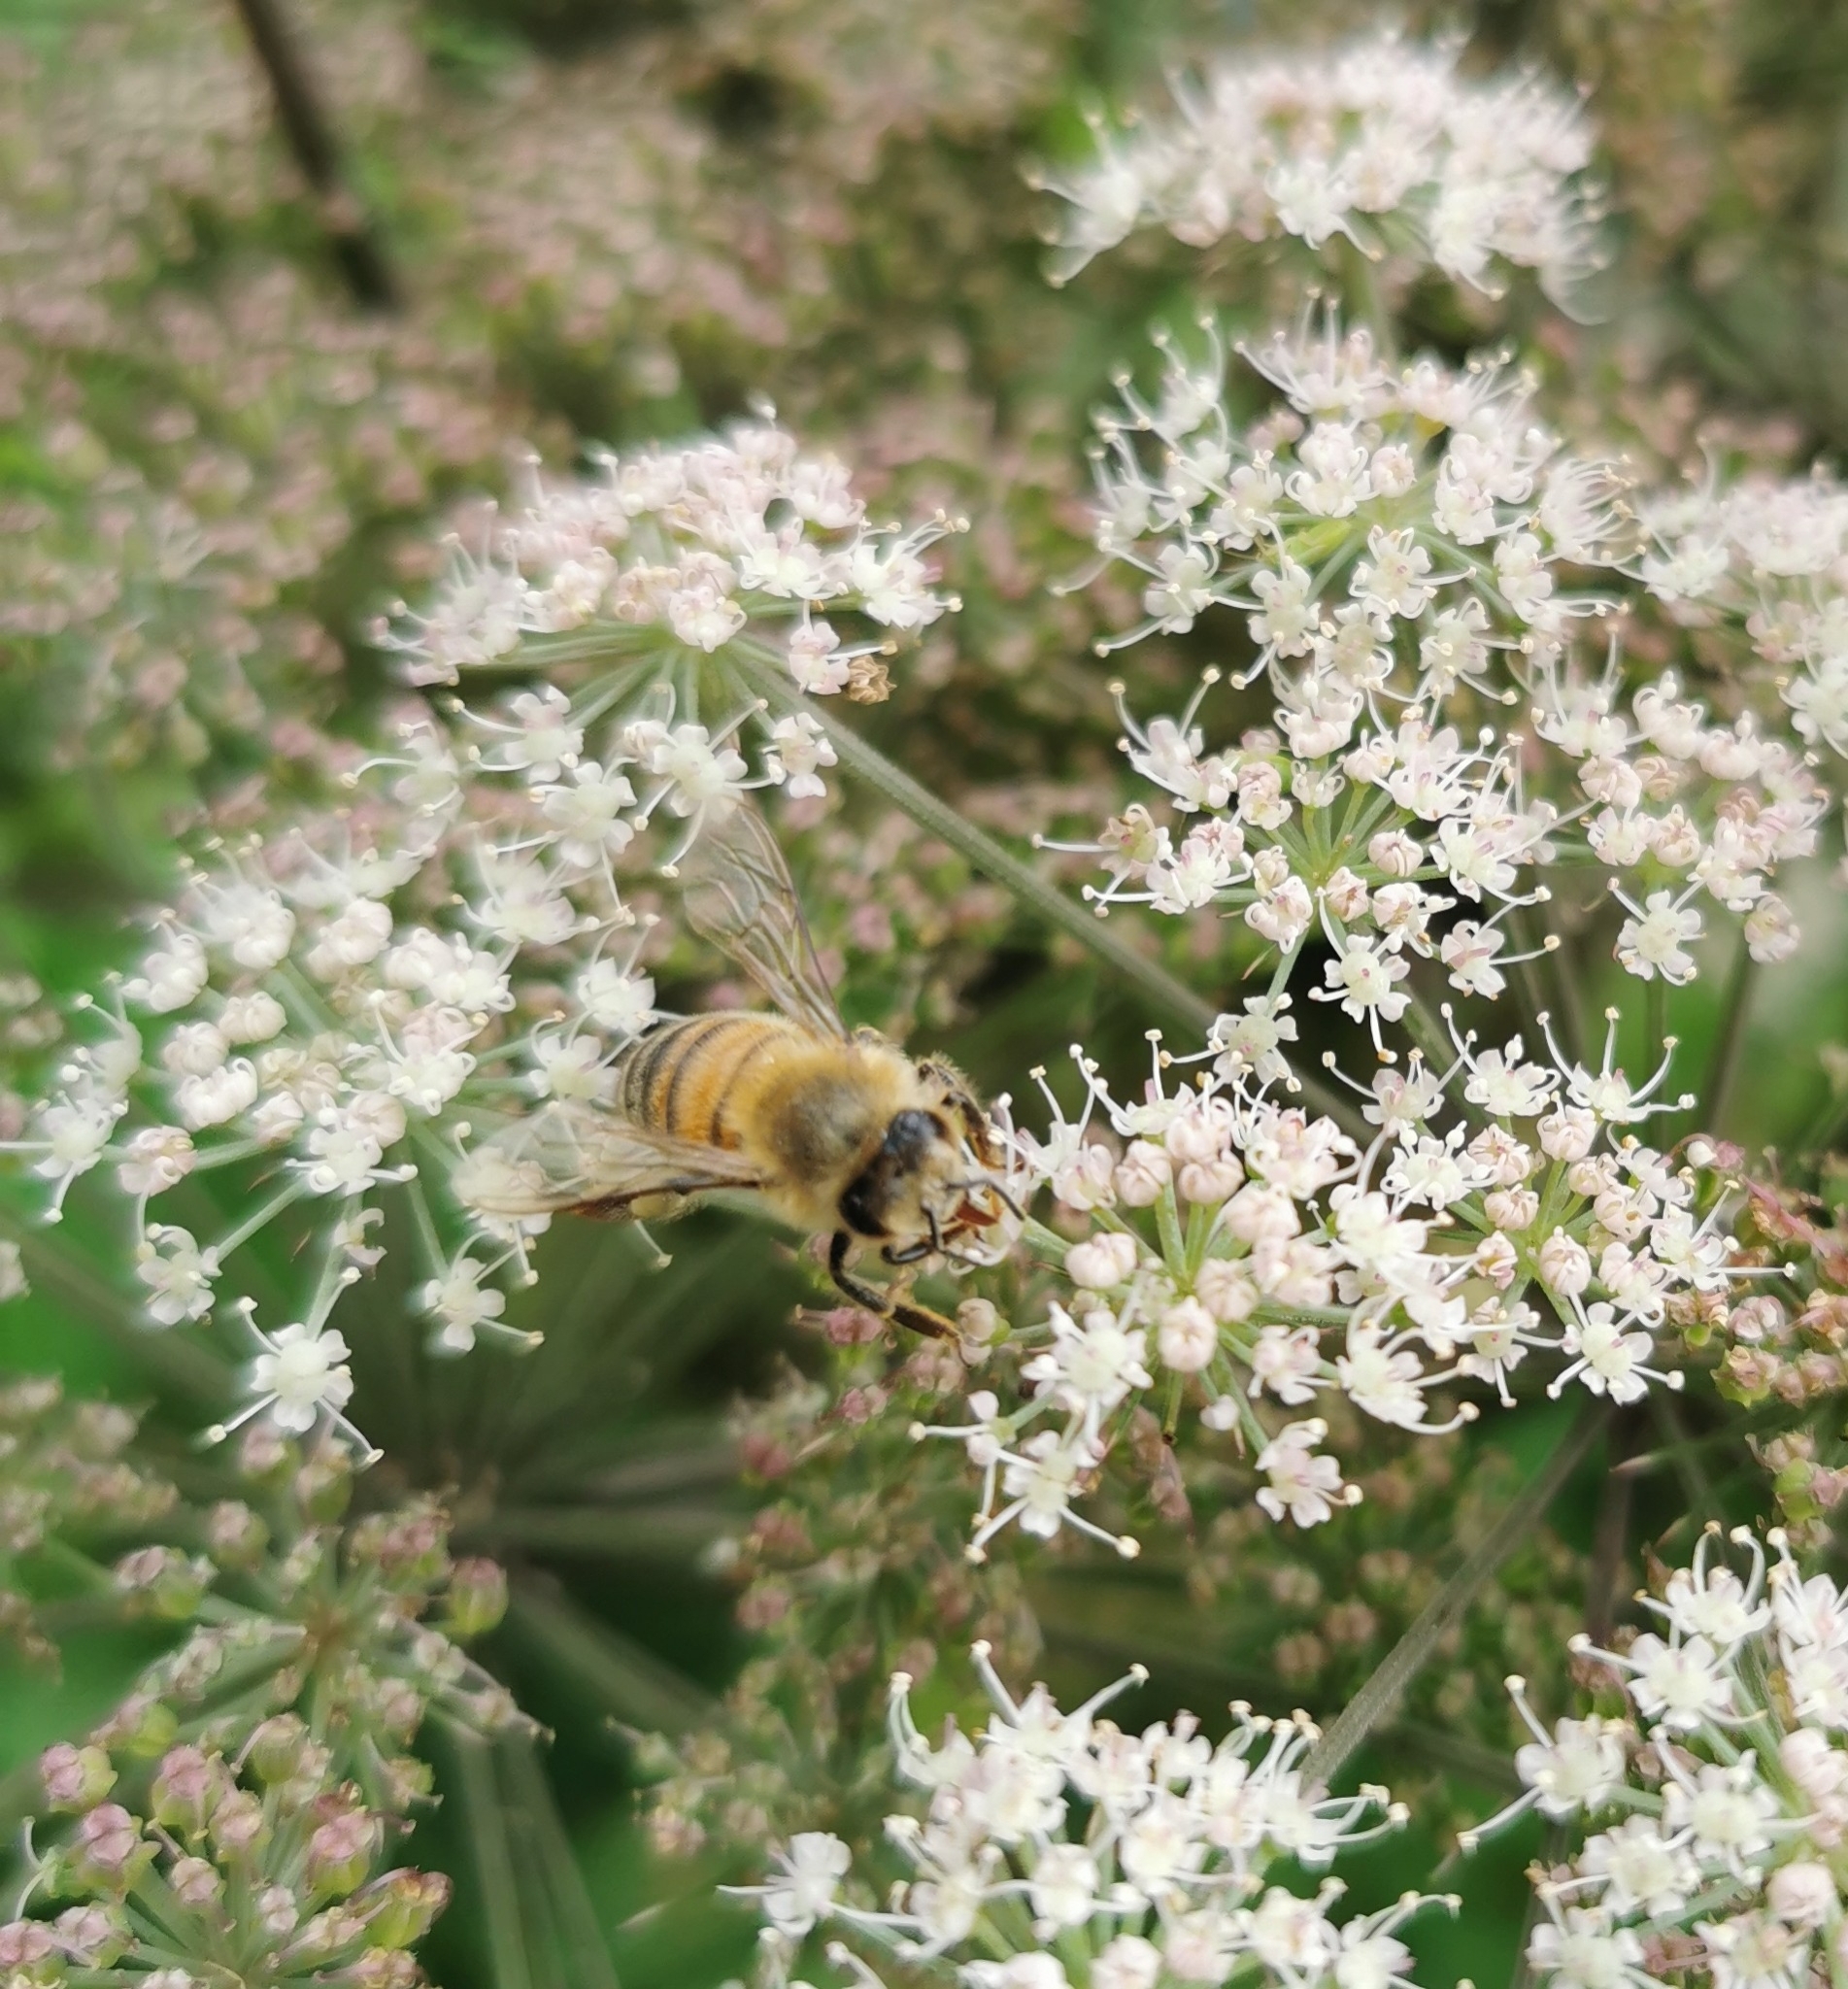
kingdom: Animalia
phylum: Arthropoda
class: Insecta
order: Hymenoptera
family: Apidae
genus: Apis
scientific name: Apis mellifera
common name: Honey bee
